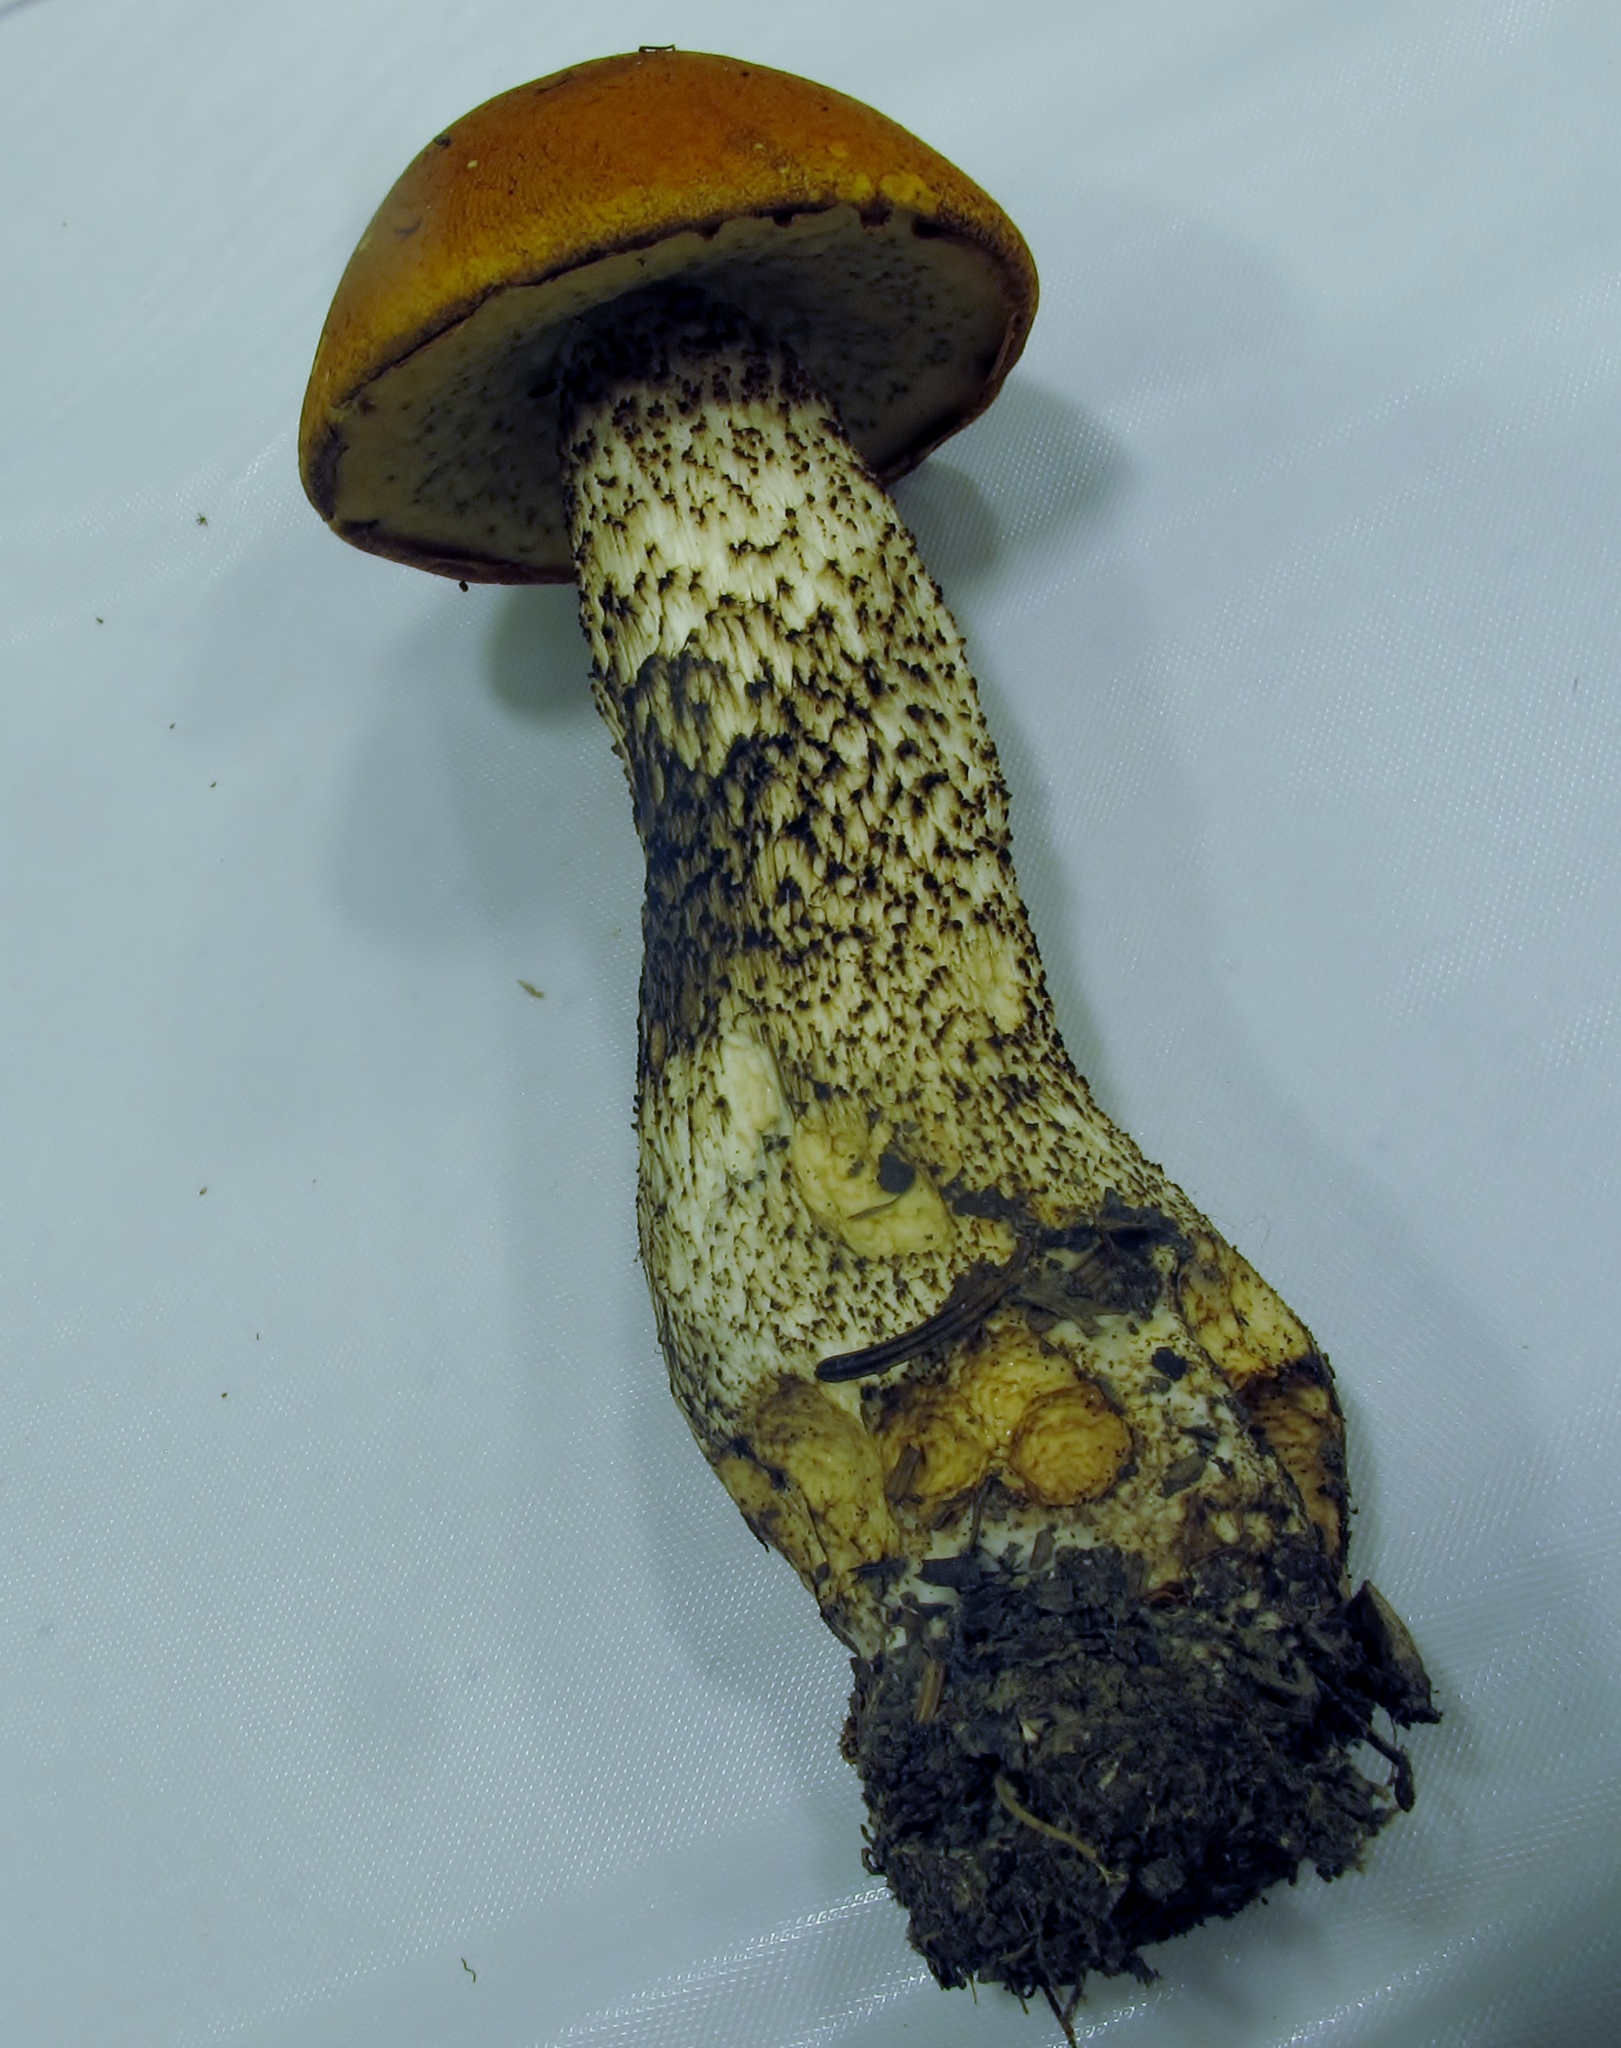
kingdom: Fungi
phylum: Basidiomycota
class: Agaricomycetes
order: Boletales
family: Boletaceae
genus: Leccinum
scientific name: Leccinum piceinum
